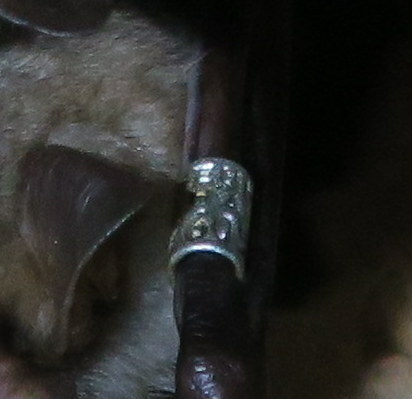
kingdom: Animalia
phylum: Chordata
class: Mammalia
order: Chiroptera
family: Vespertilionidae
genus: Myotis
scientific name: Myotis myotis
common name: Greater mouse-eared bat
